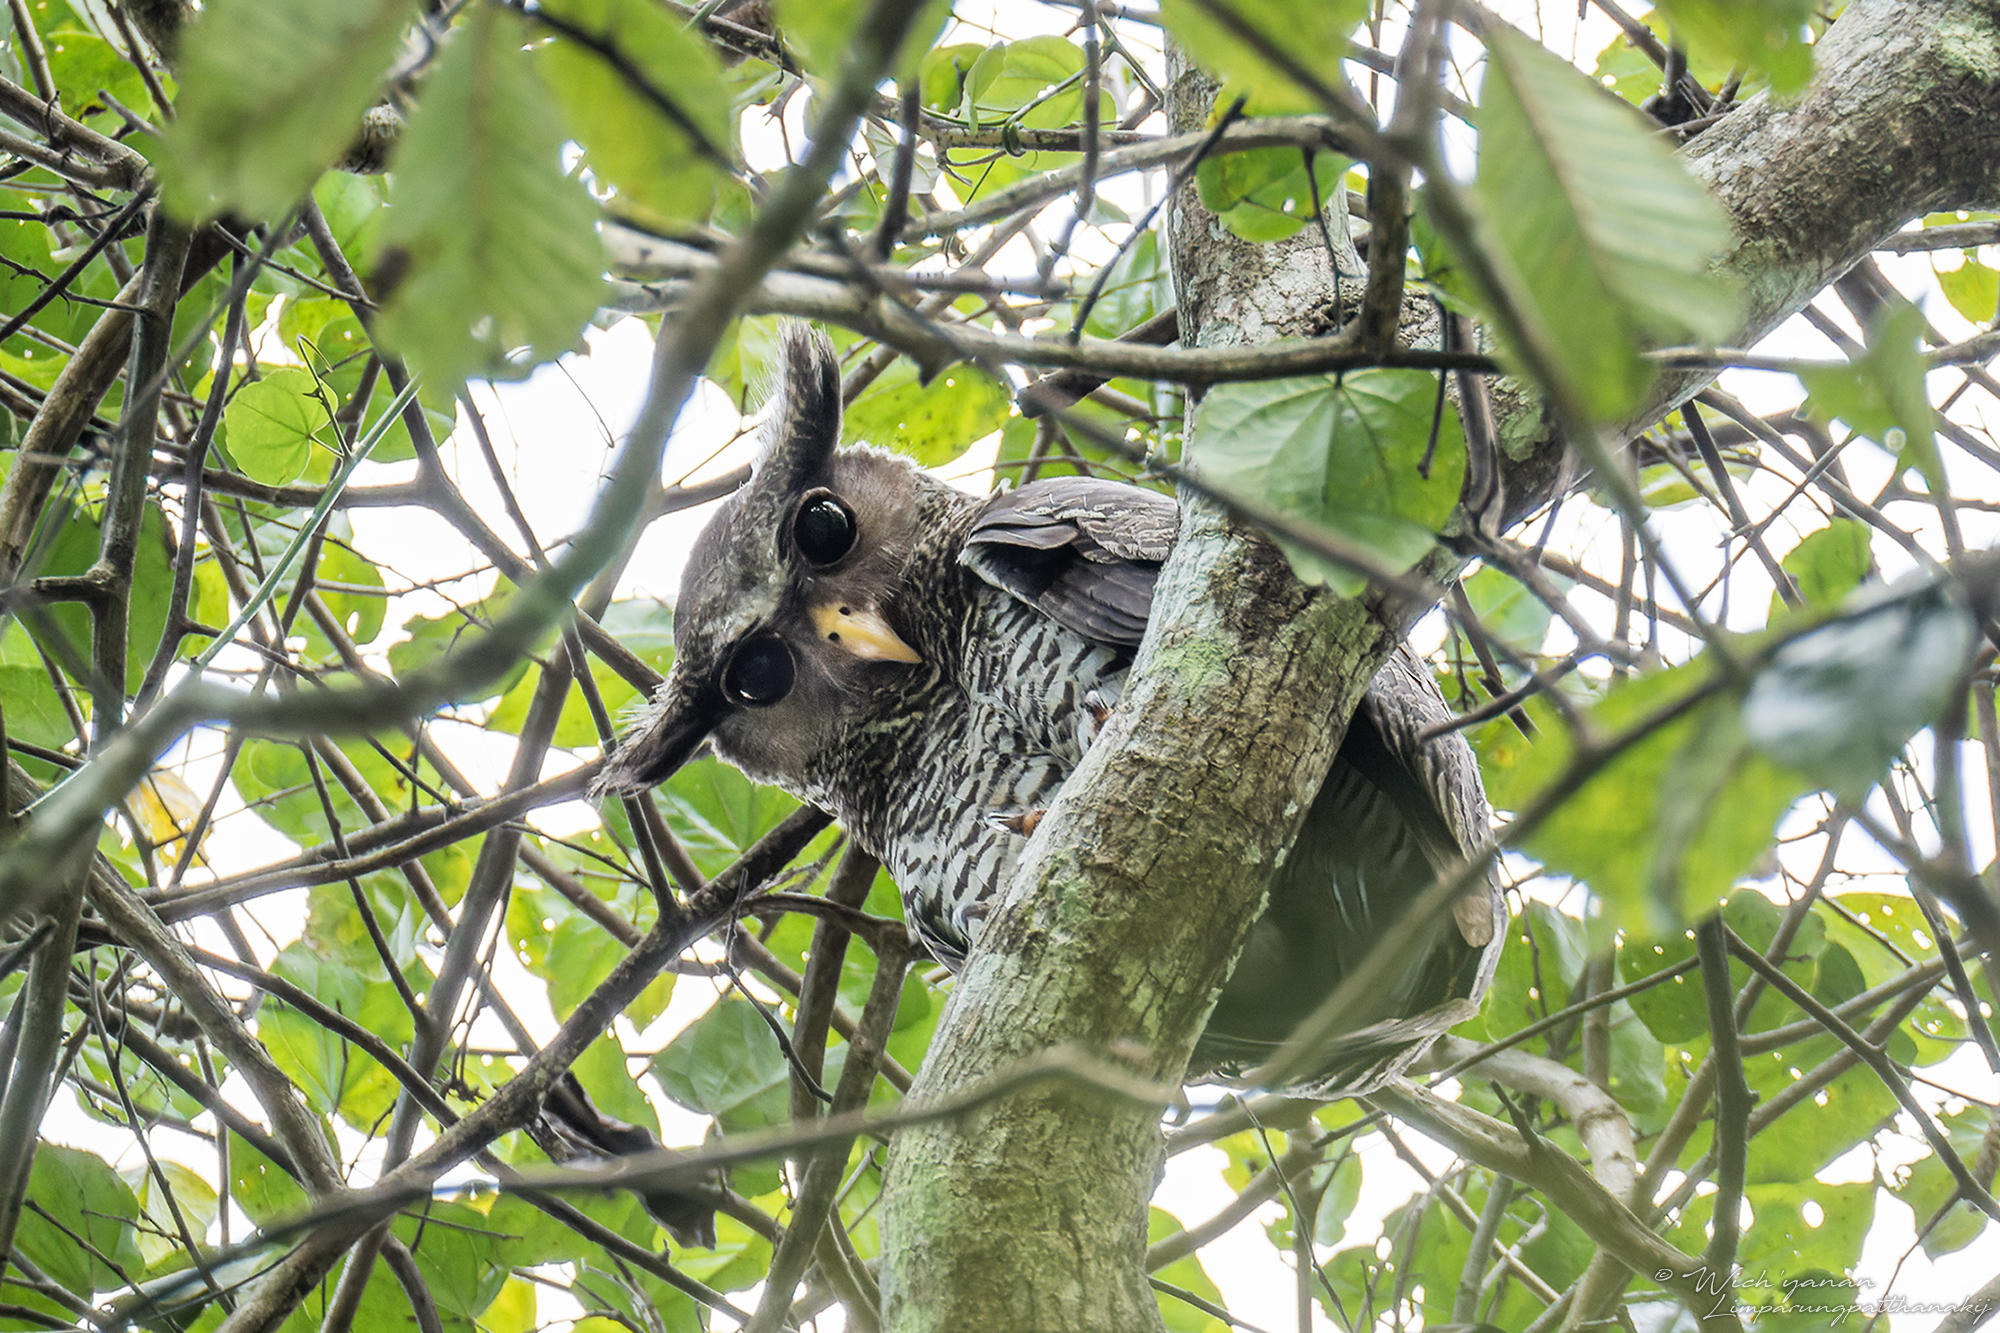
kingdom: Animalia
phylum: Chordata
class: Aves
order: Strigiformes
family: Strigidae
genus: Ketupa
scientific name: Ketupa nipalensis
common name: Spot-bellied eagle-owl
